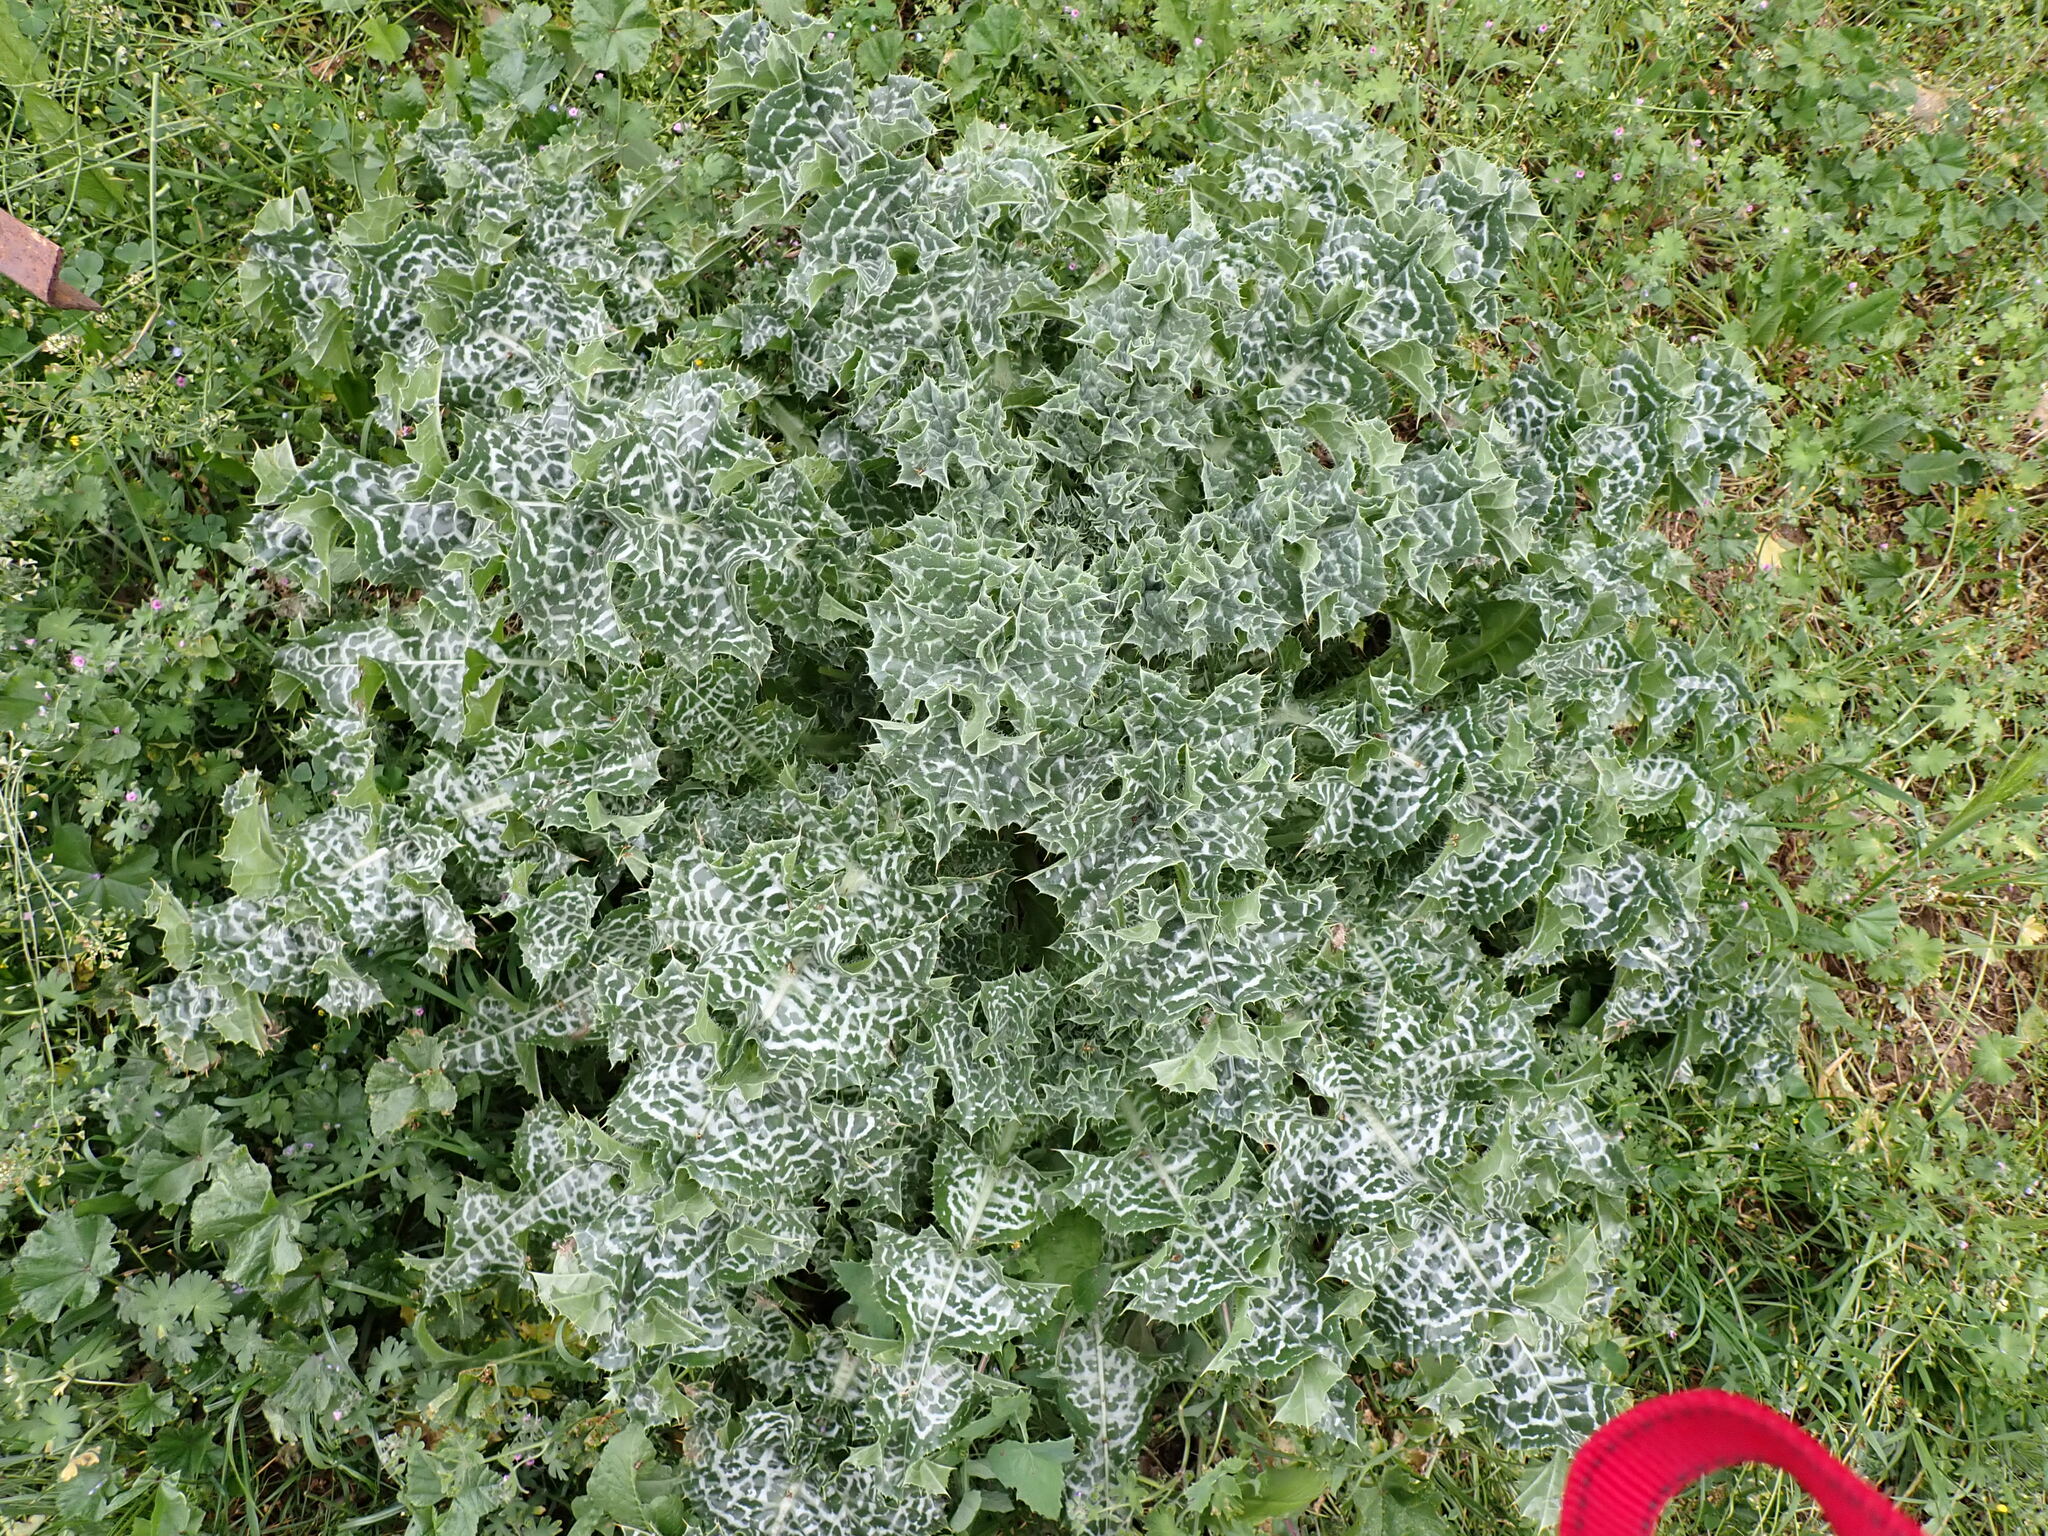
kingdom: Plantae
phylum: Tracheophyta
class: Magnoliopsida
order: Asterales
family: Asteraceae
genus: Silybum
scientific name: Silybum marianum
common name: Milk thistle
